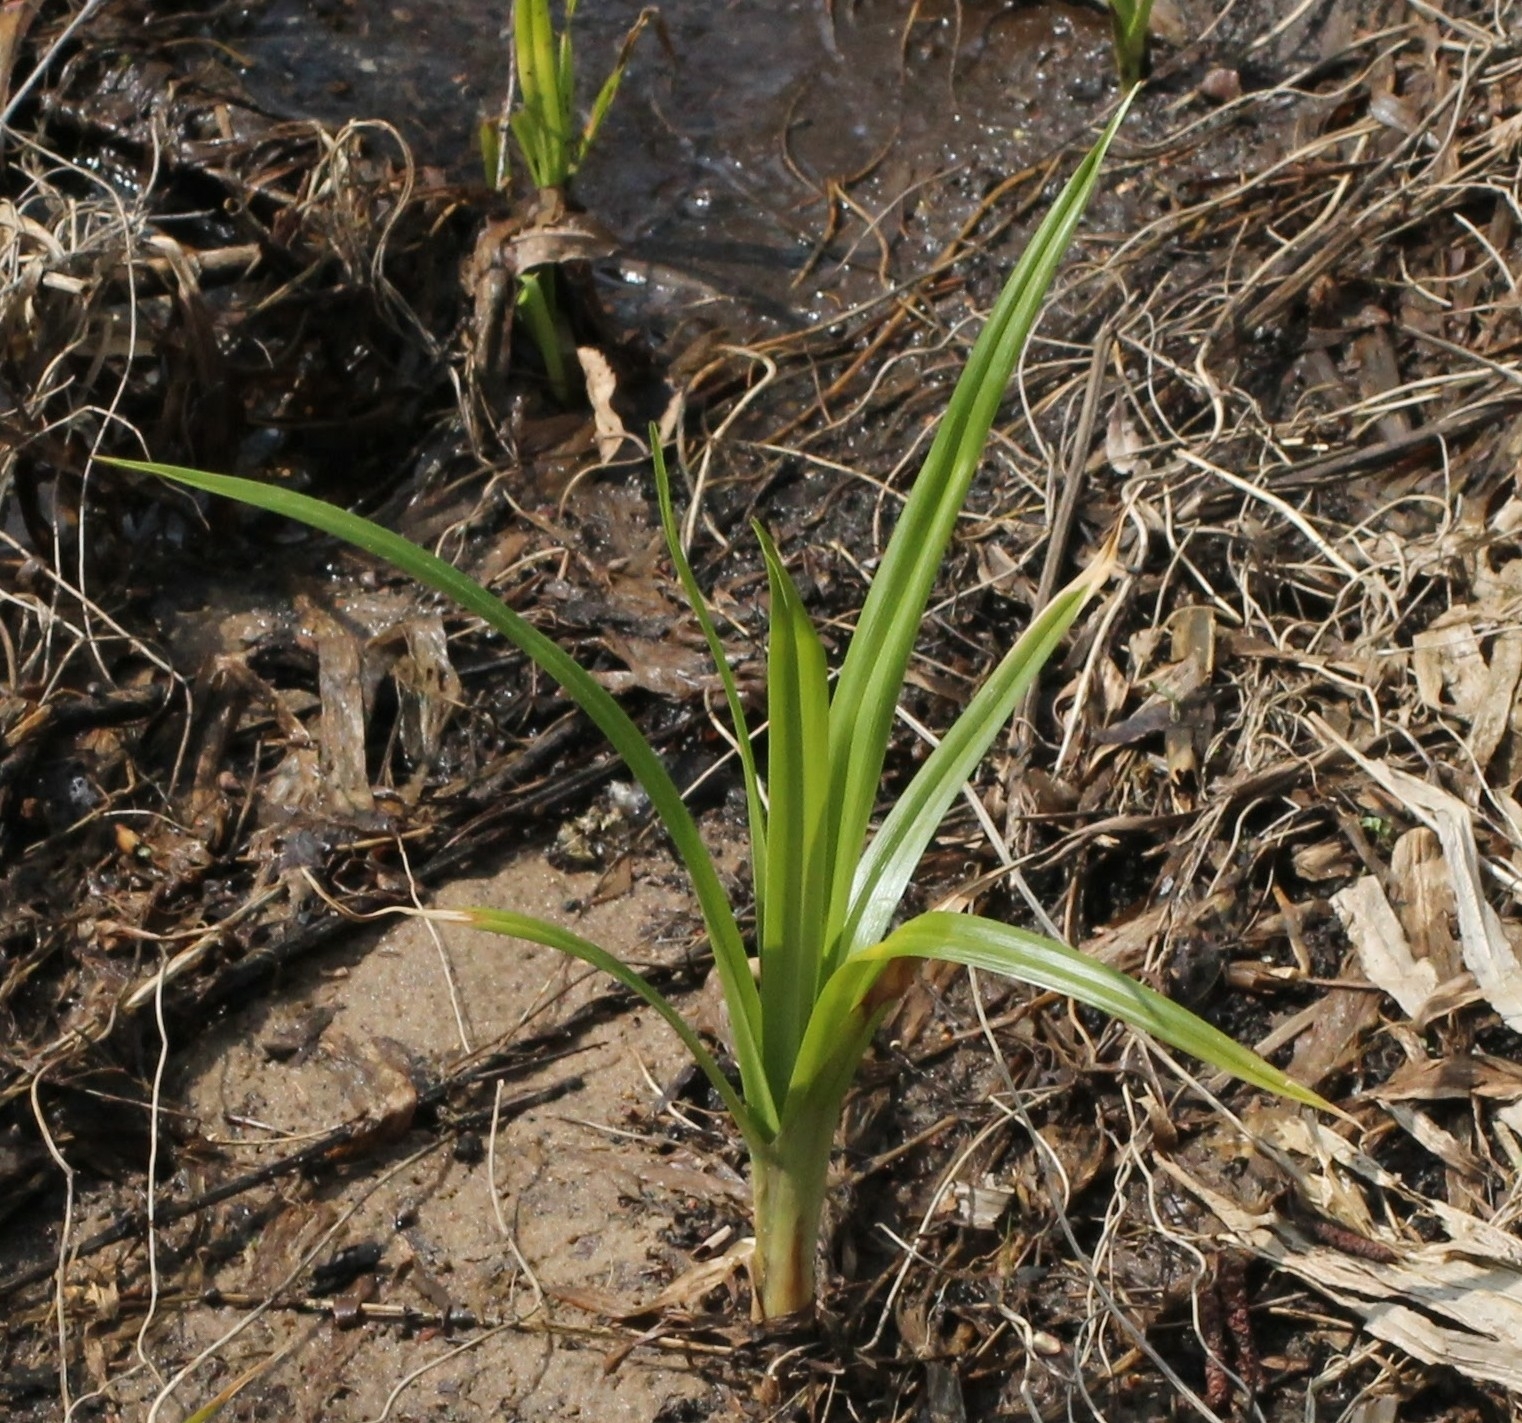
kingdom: Plantae
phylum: Tracheophyta
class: Liliopsida
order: Poales
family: Cyperaceae
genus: Scirpus
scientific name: Scirpus sylvaticus
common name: Wood club-rush
